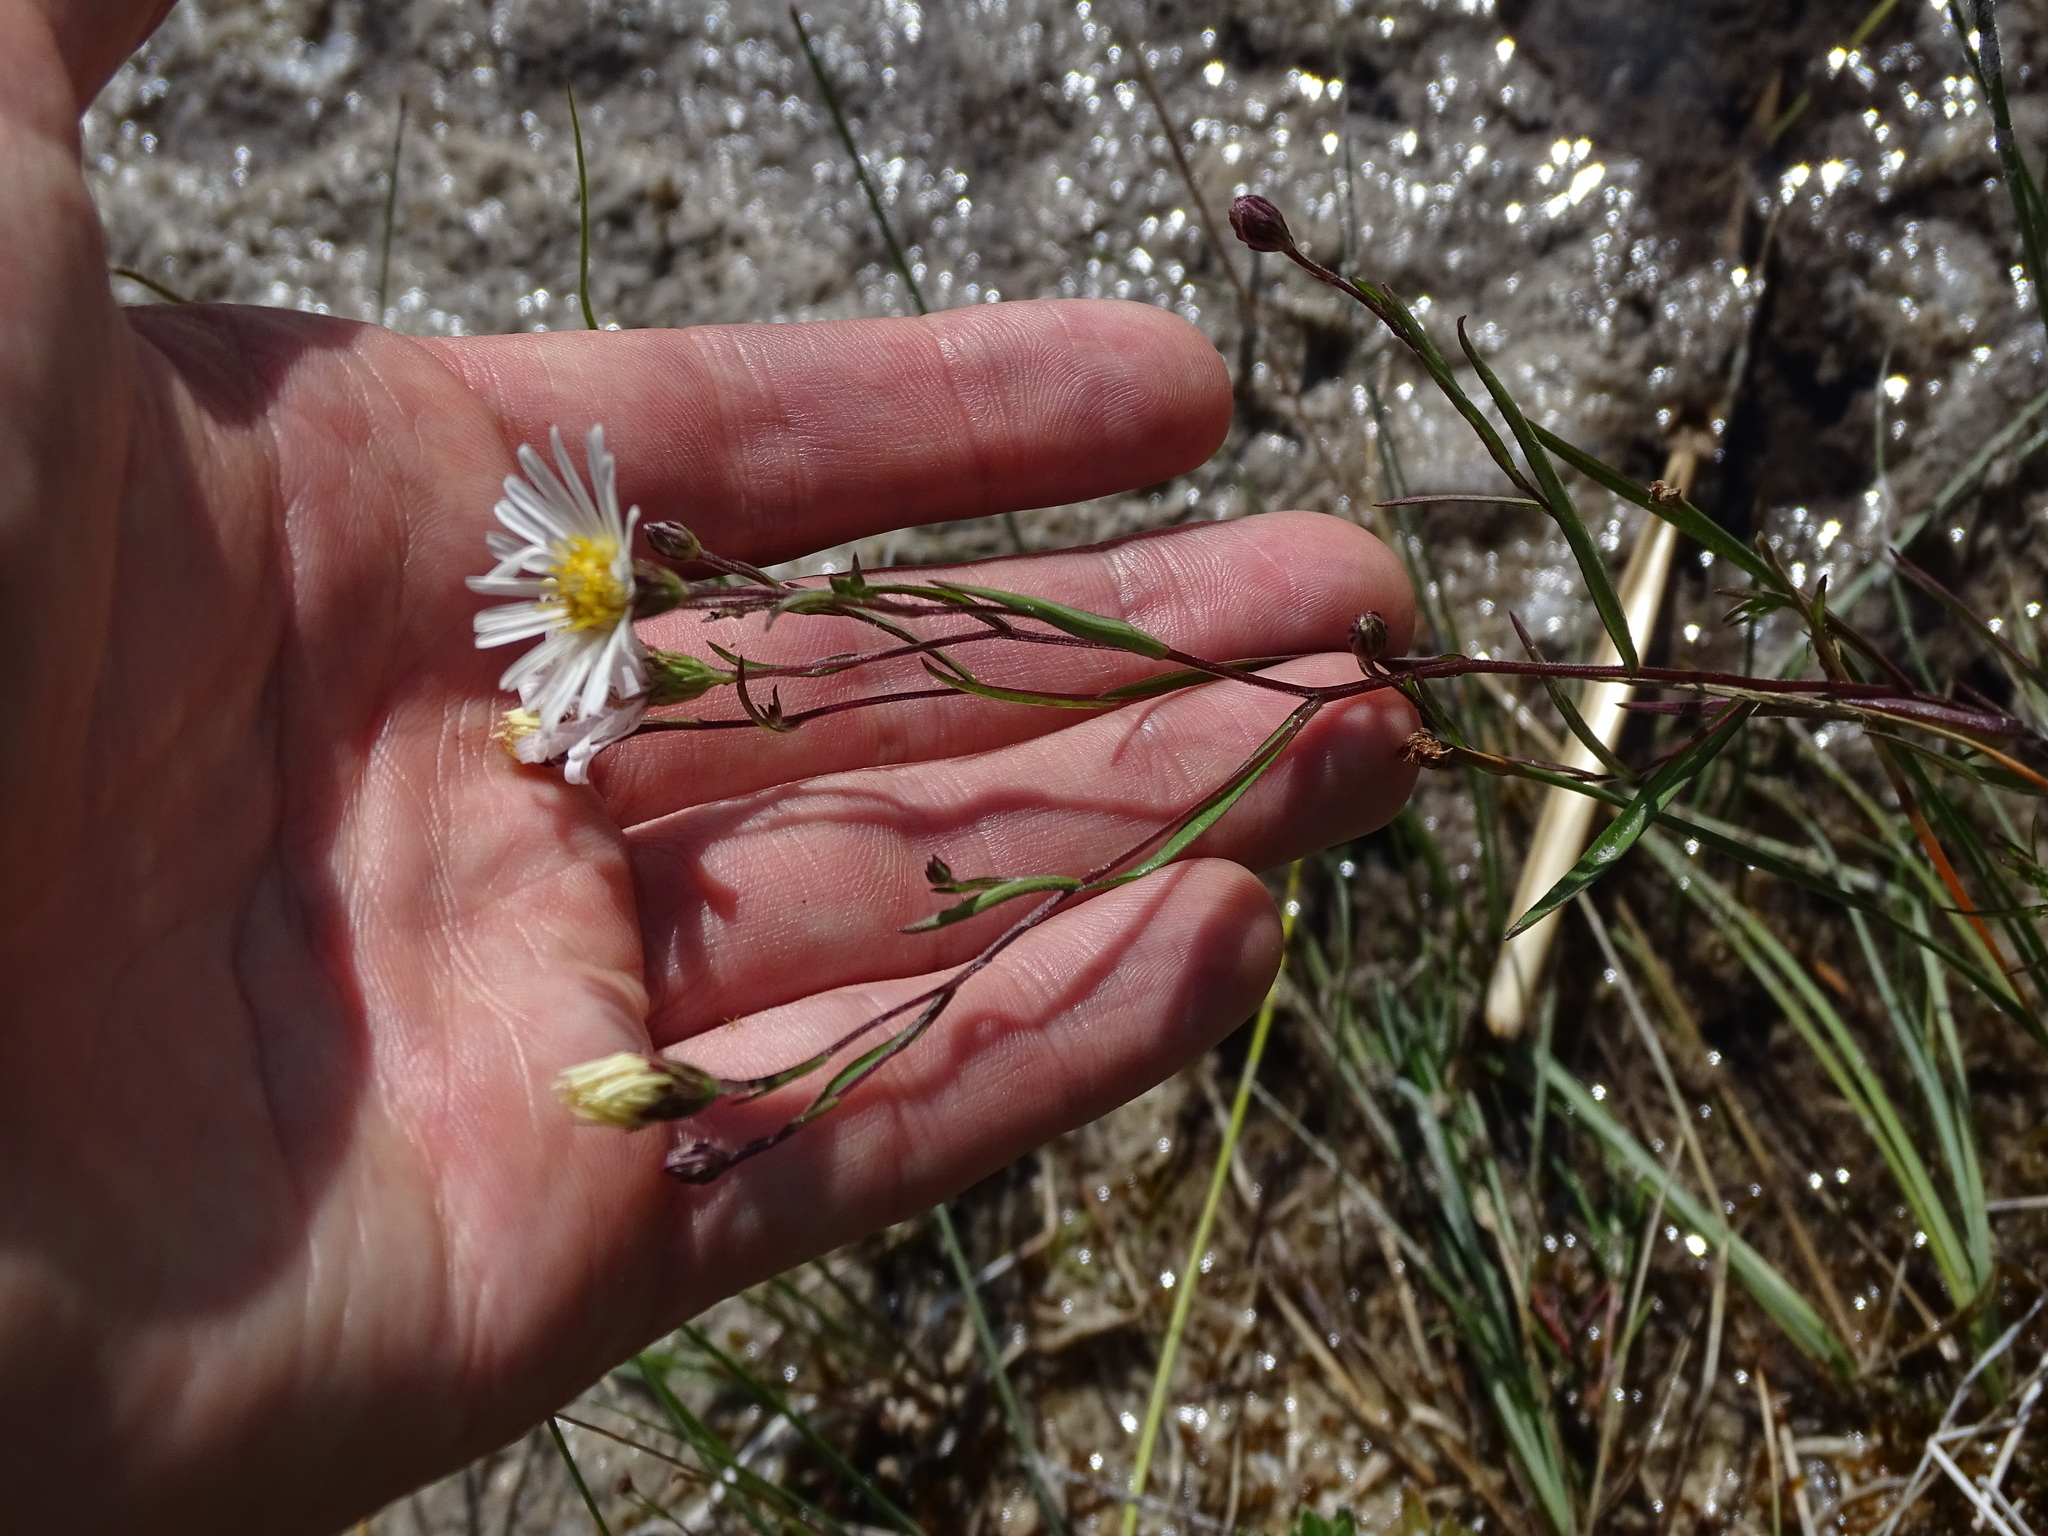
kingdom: Plantae
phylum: Tracheophyta
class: Magnoliopsida
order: Asterales
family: Asteraceae
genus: Symphyotrichum
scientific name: Symphyotrichum boreale
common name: Northern bog aster
